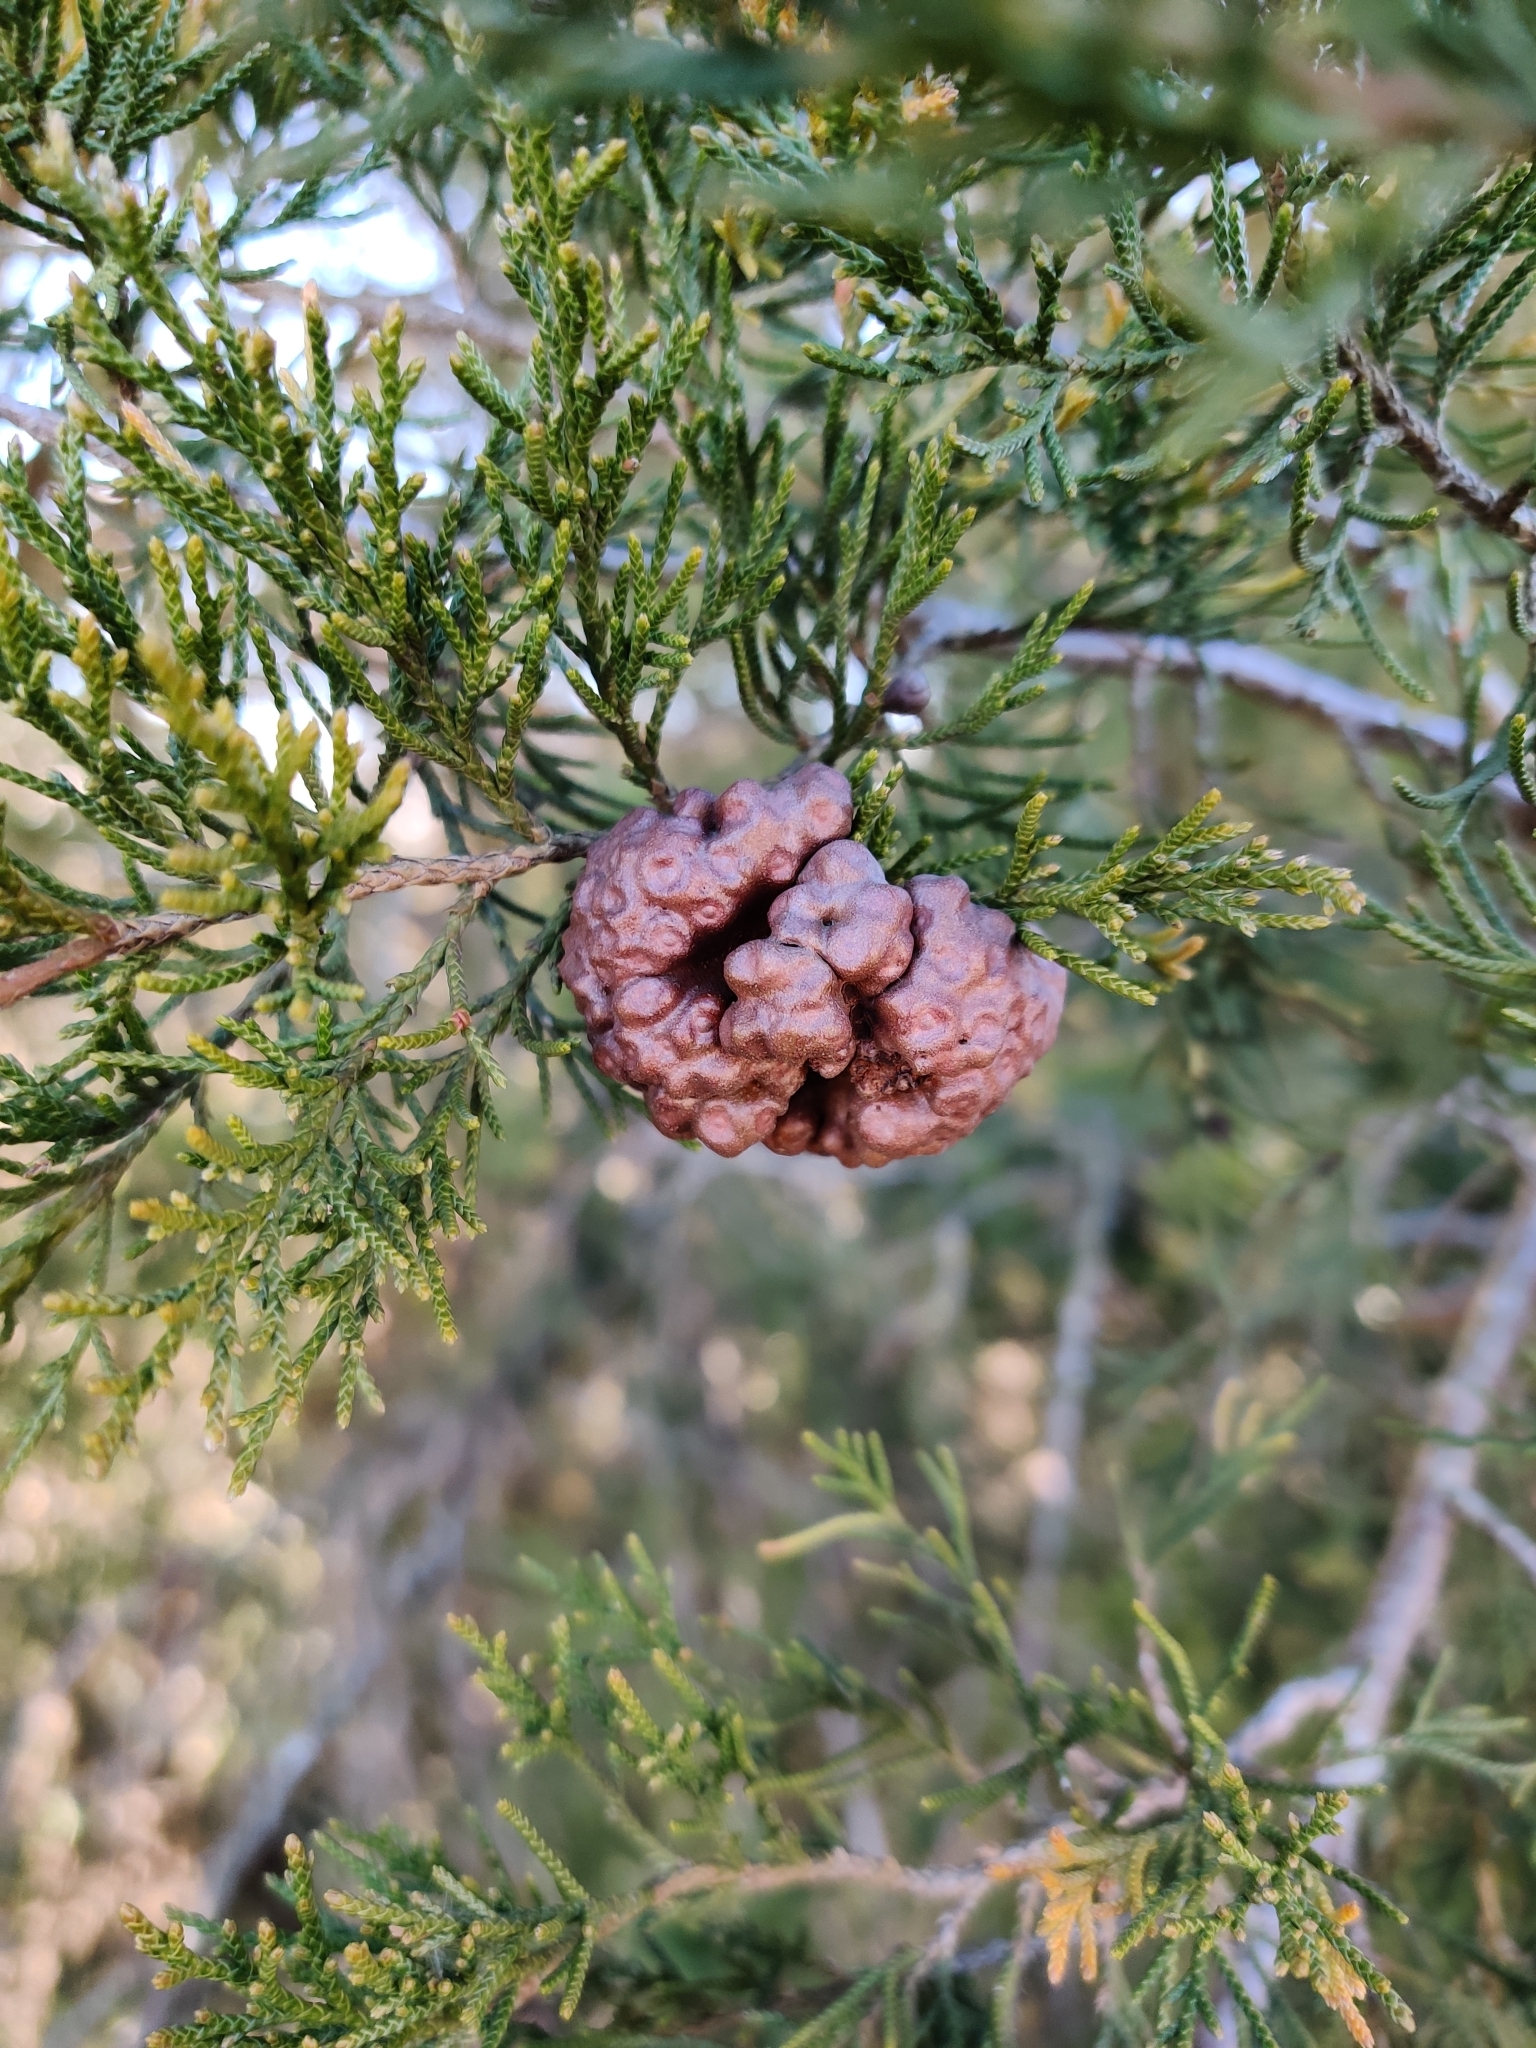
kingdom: Fungi
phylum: Basidiomycota
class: Pucciniomycetes
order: Pucciniales
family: Gymnosporangiaceae
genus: Gymnosporangium
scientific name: Gymnosporangium juniperi-virginianae
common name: Juniper-apple rust
